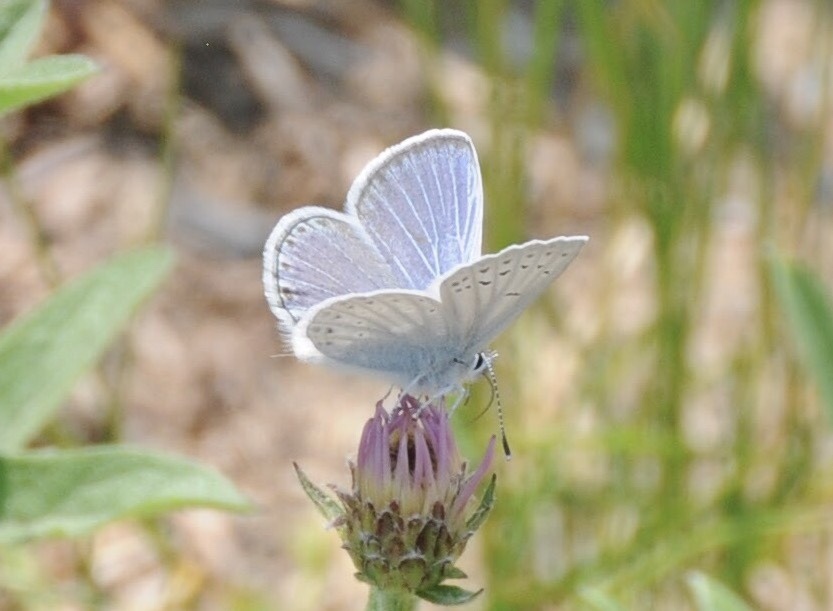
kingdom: Animalia
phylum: Arthropoda
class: Insecta
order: Lepidoptera
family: Lycaenidae
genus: Icaricia
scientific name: Icaricia icarioides
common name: Boisduval's blue
